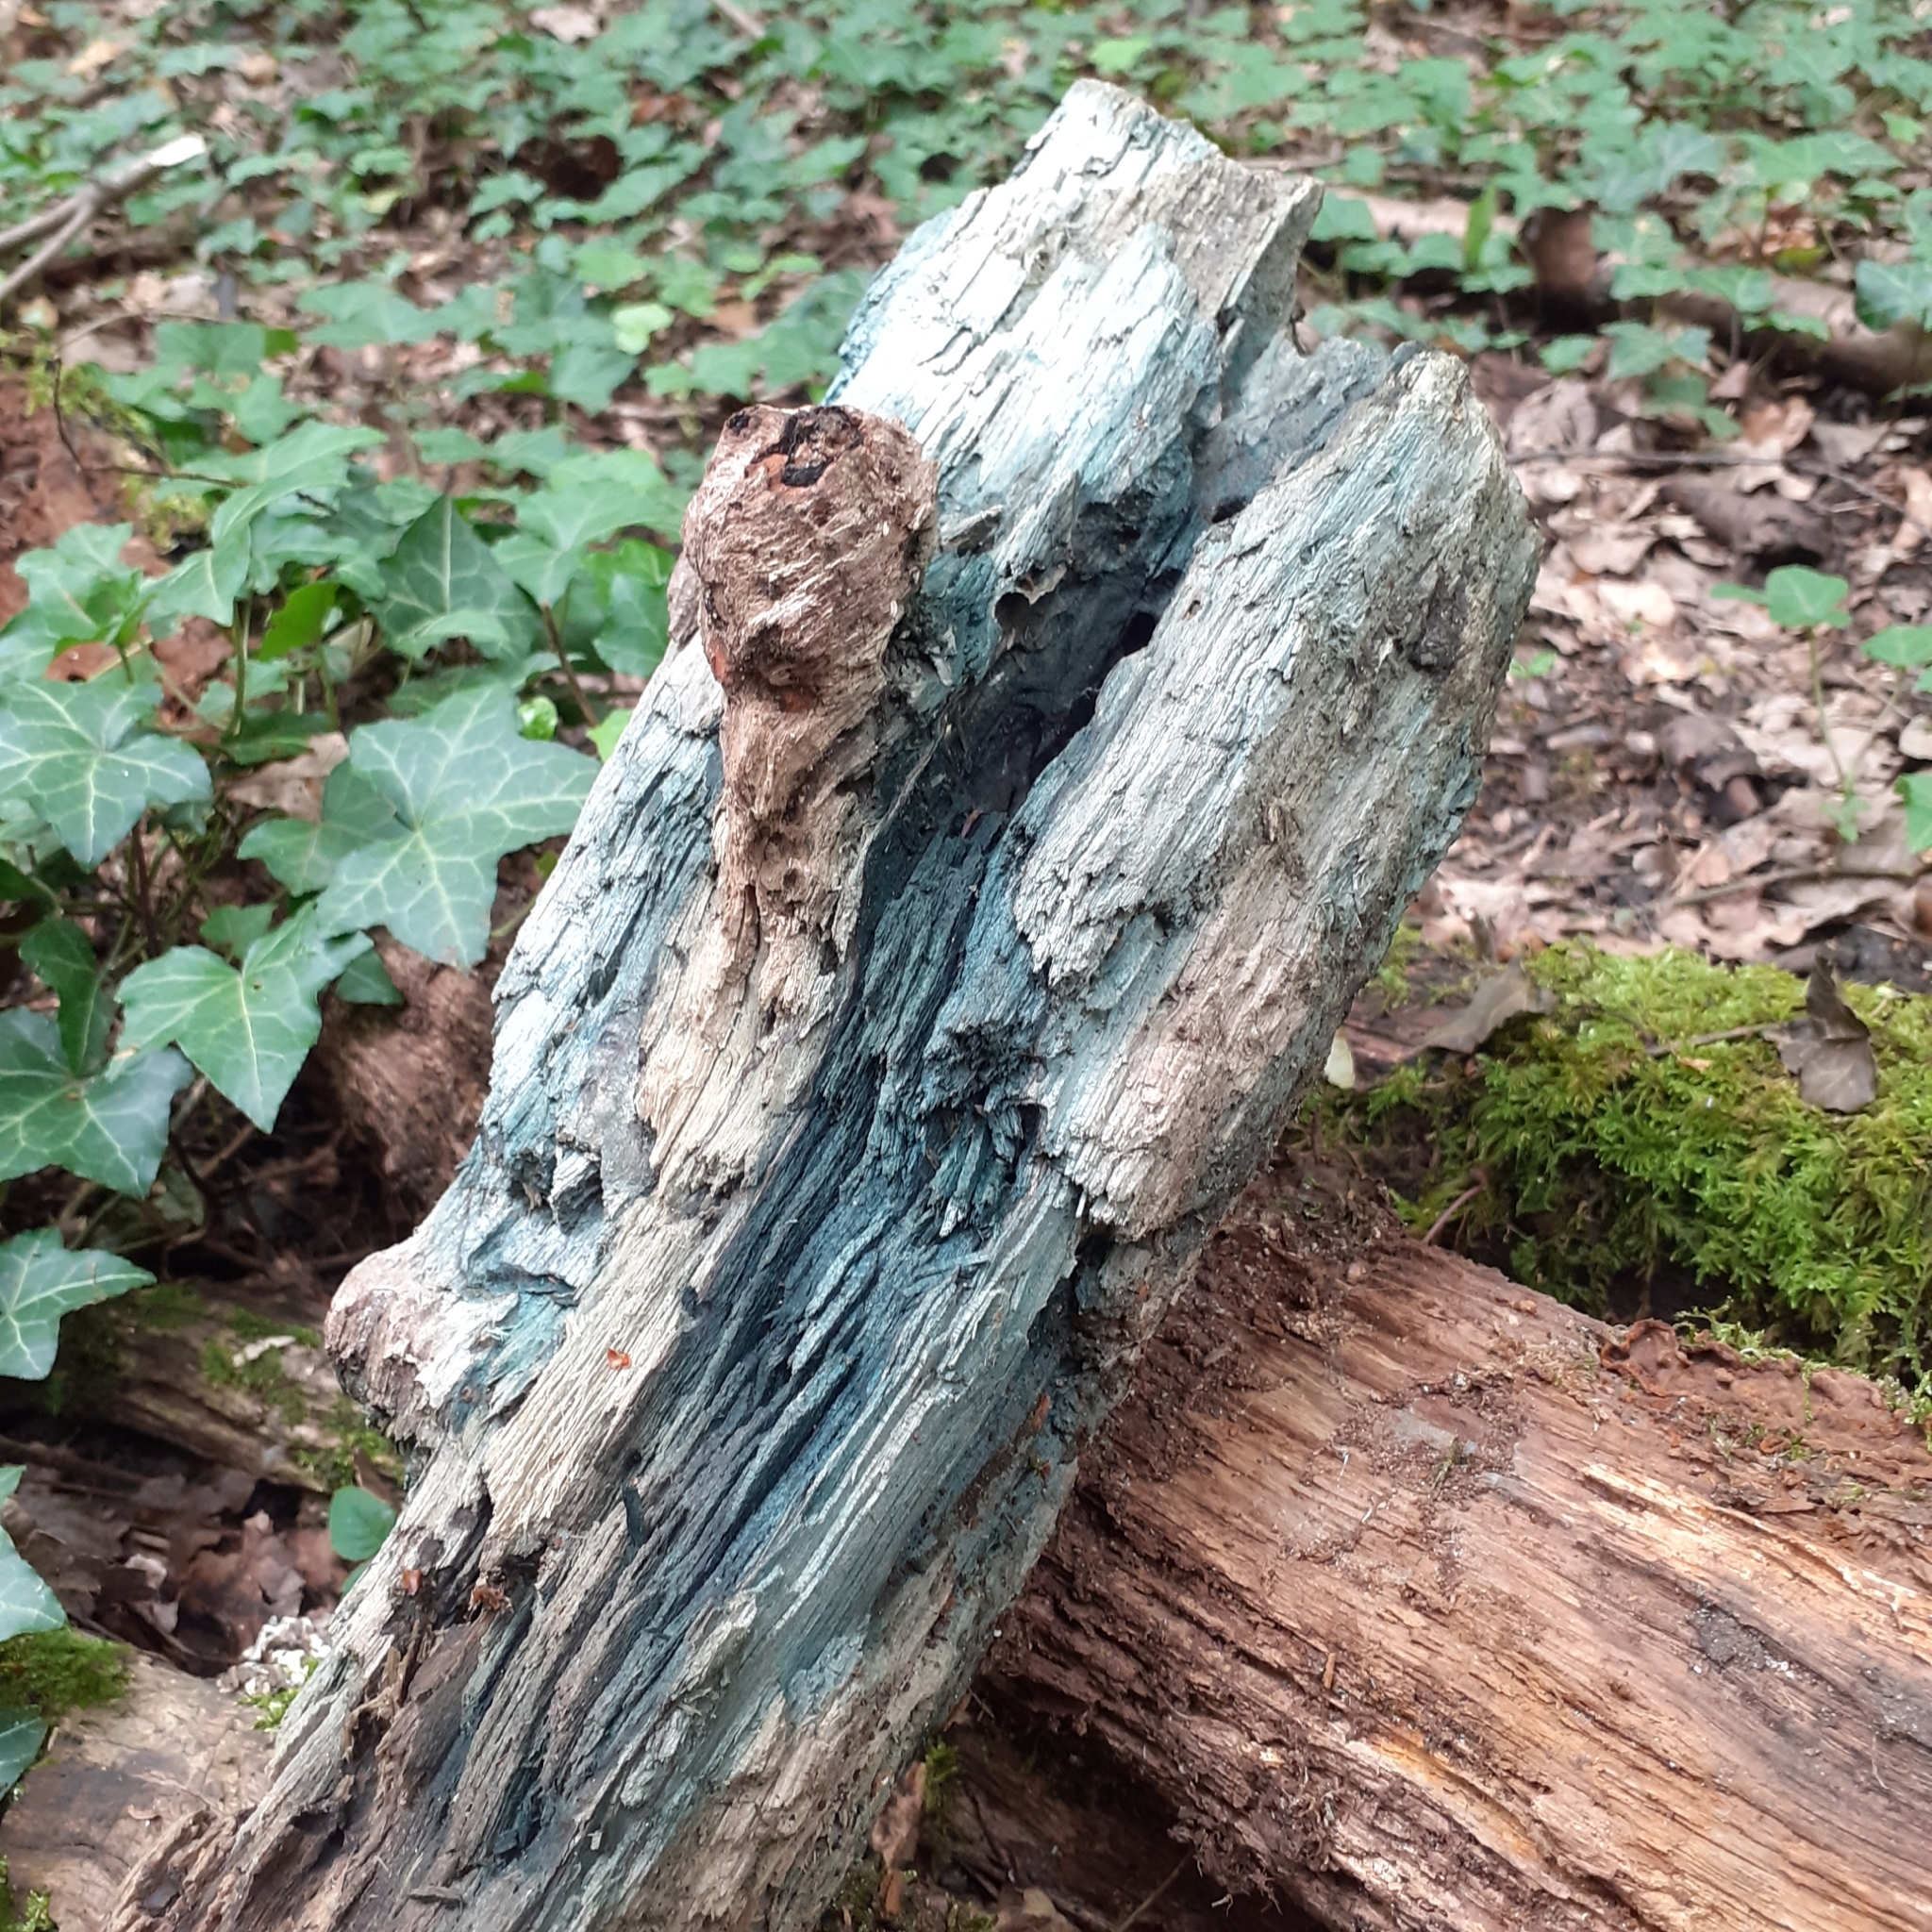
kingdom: Fungi
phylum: Ascomycota
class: Leotiomycetes
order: Helotiales
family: Chlorociboriaceae
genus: Chlorociboria
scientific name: Chlorociboria
